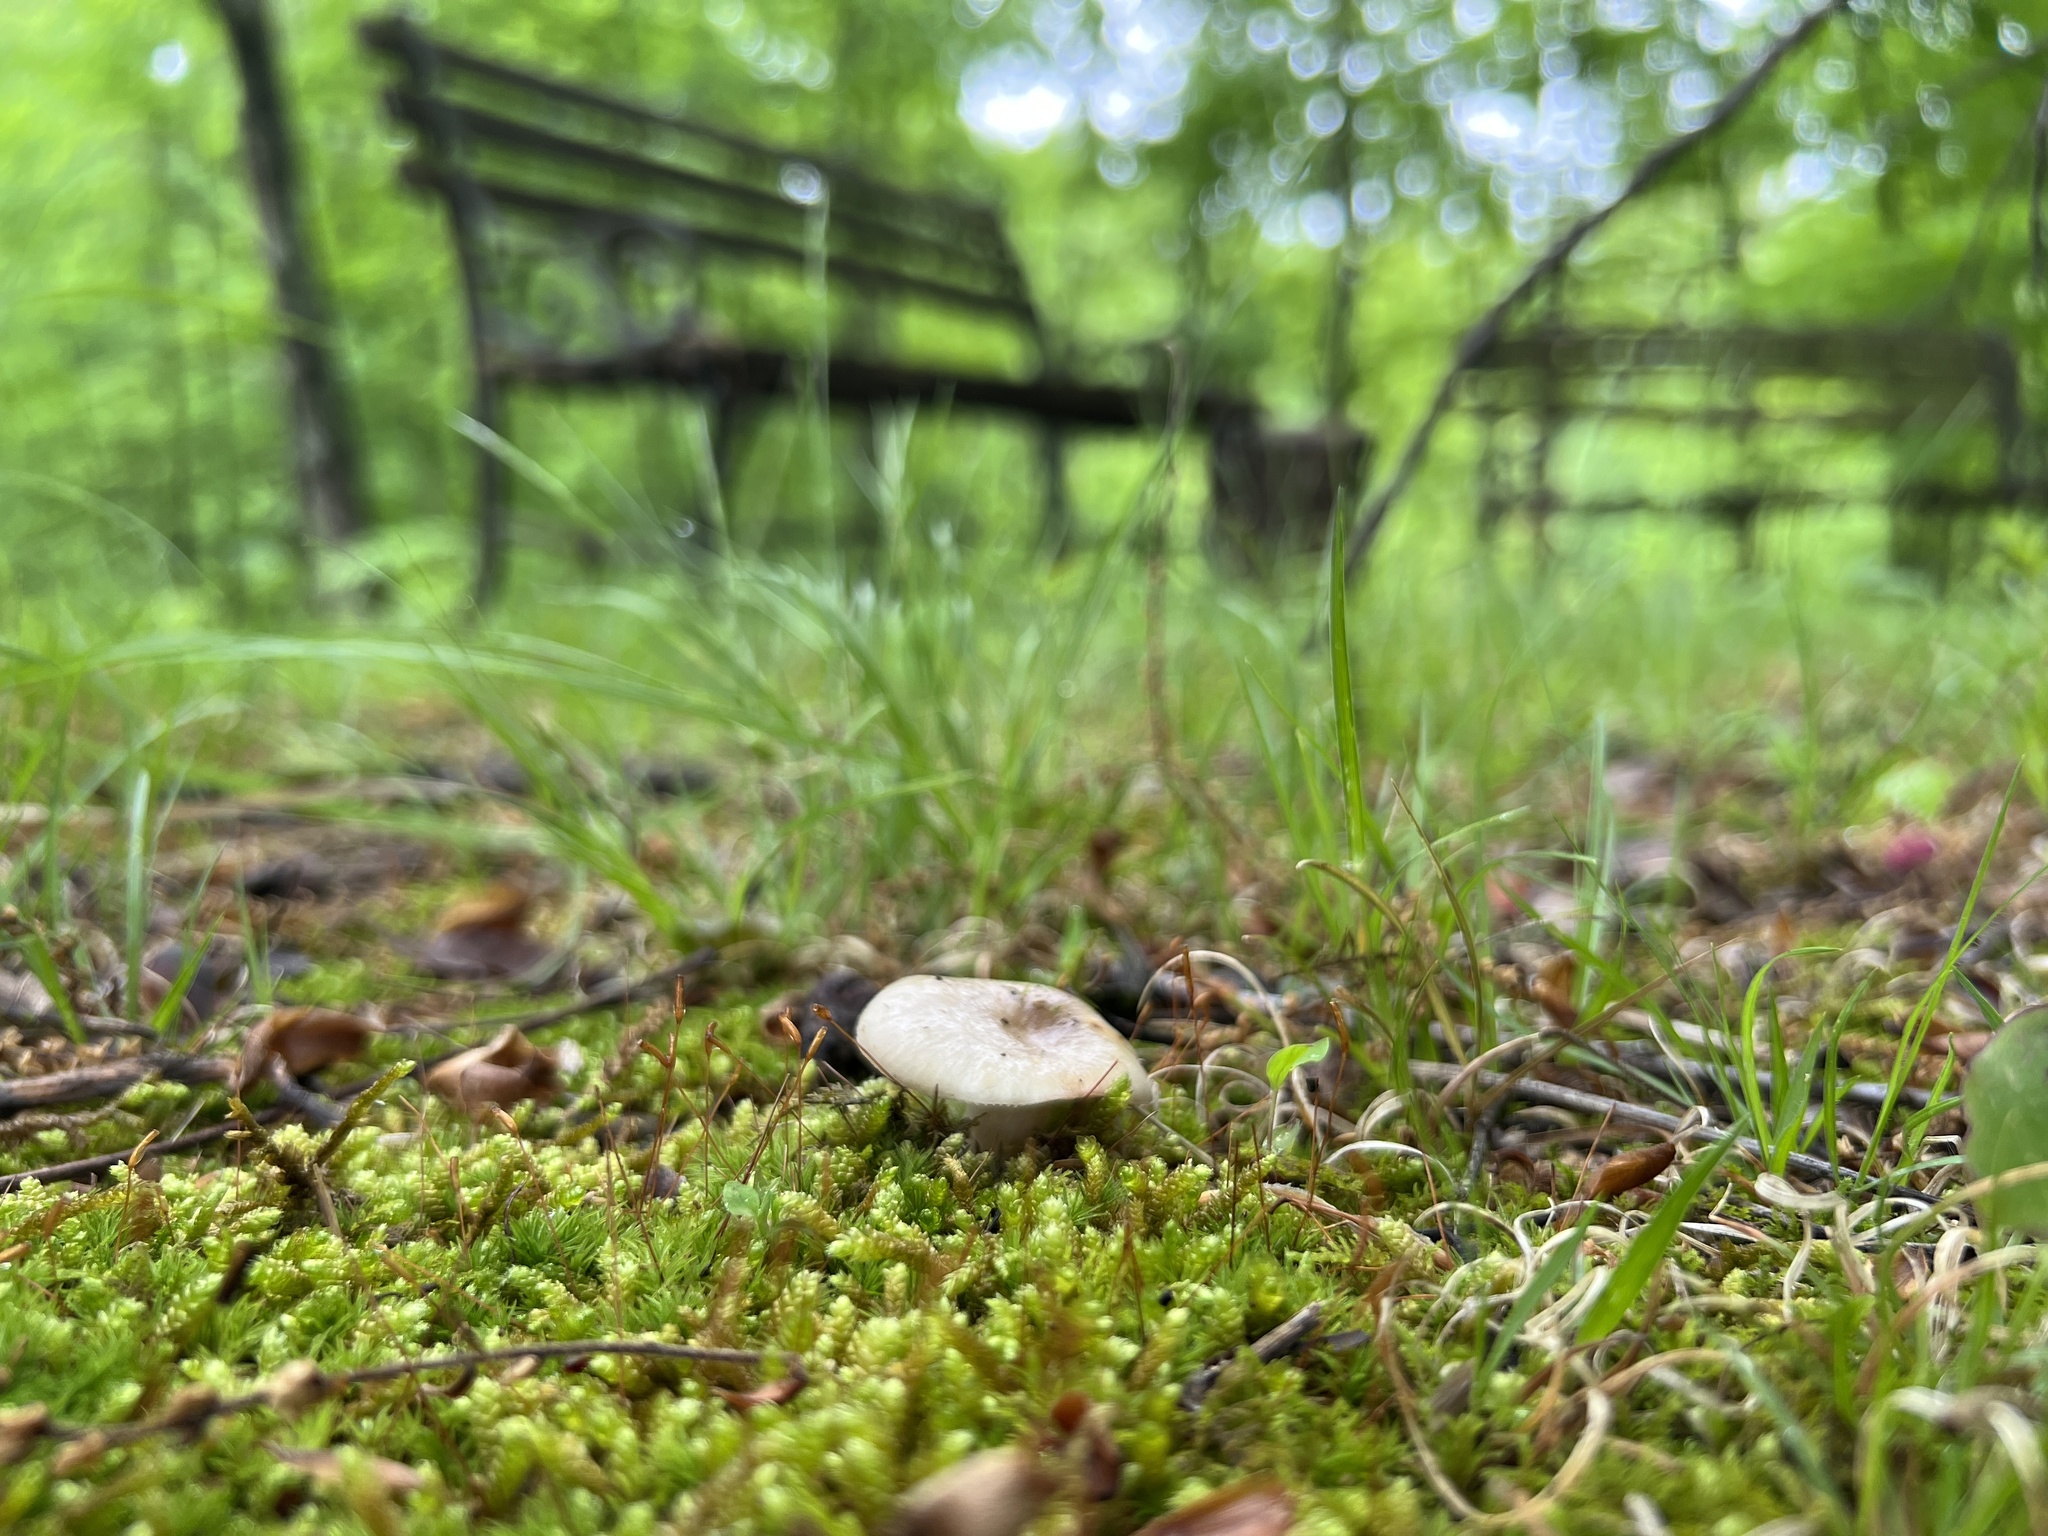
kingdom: Fungi
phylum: Basidiomycota
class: Agaricomycetes
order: Russulales
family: Russulaceae
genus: Russula
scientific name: Russula vinacea
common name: Blackish-red russula
